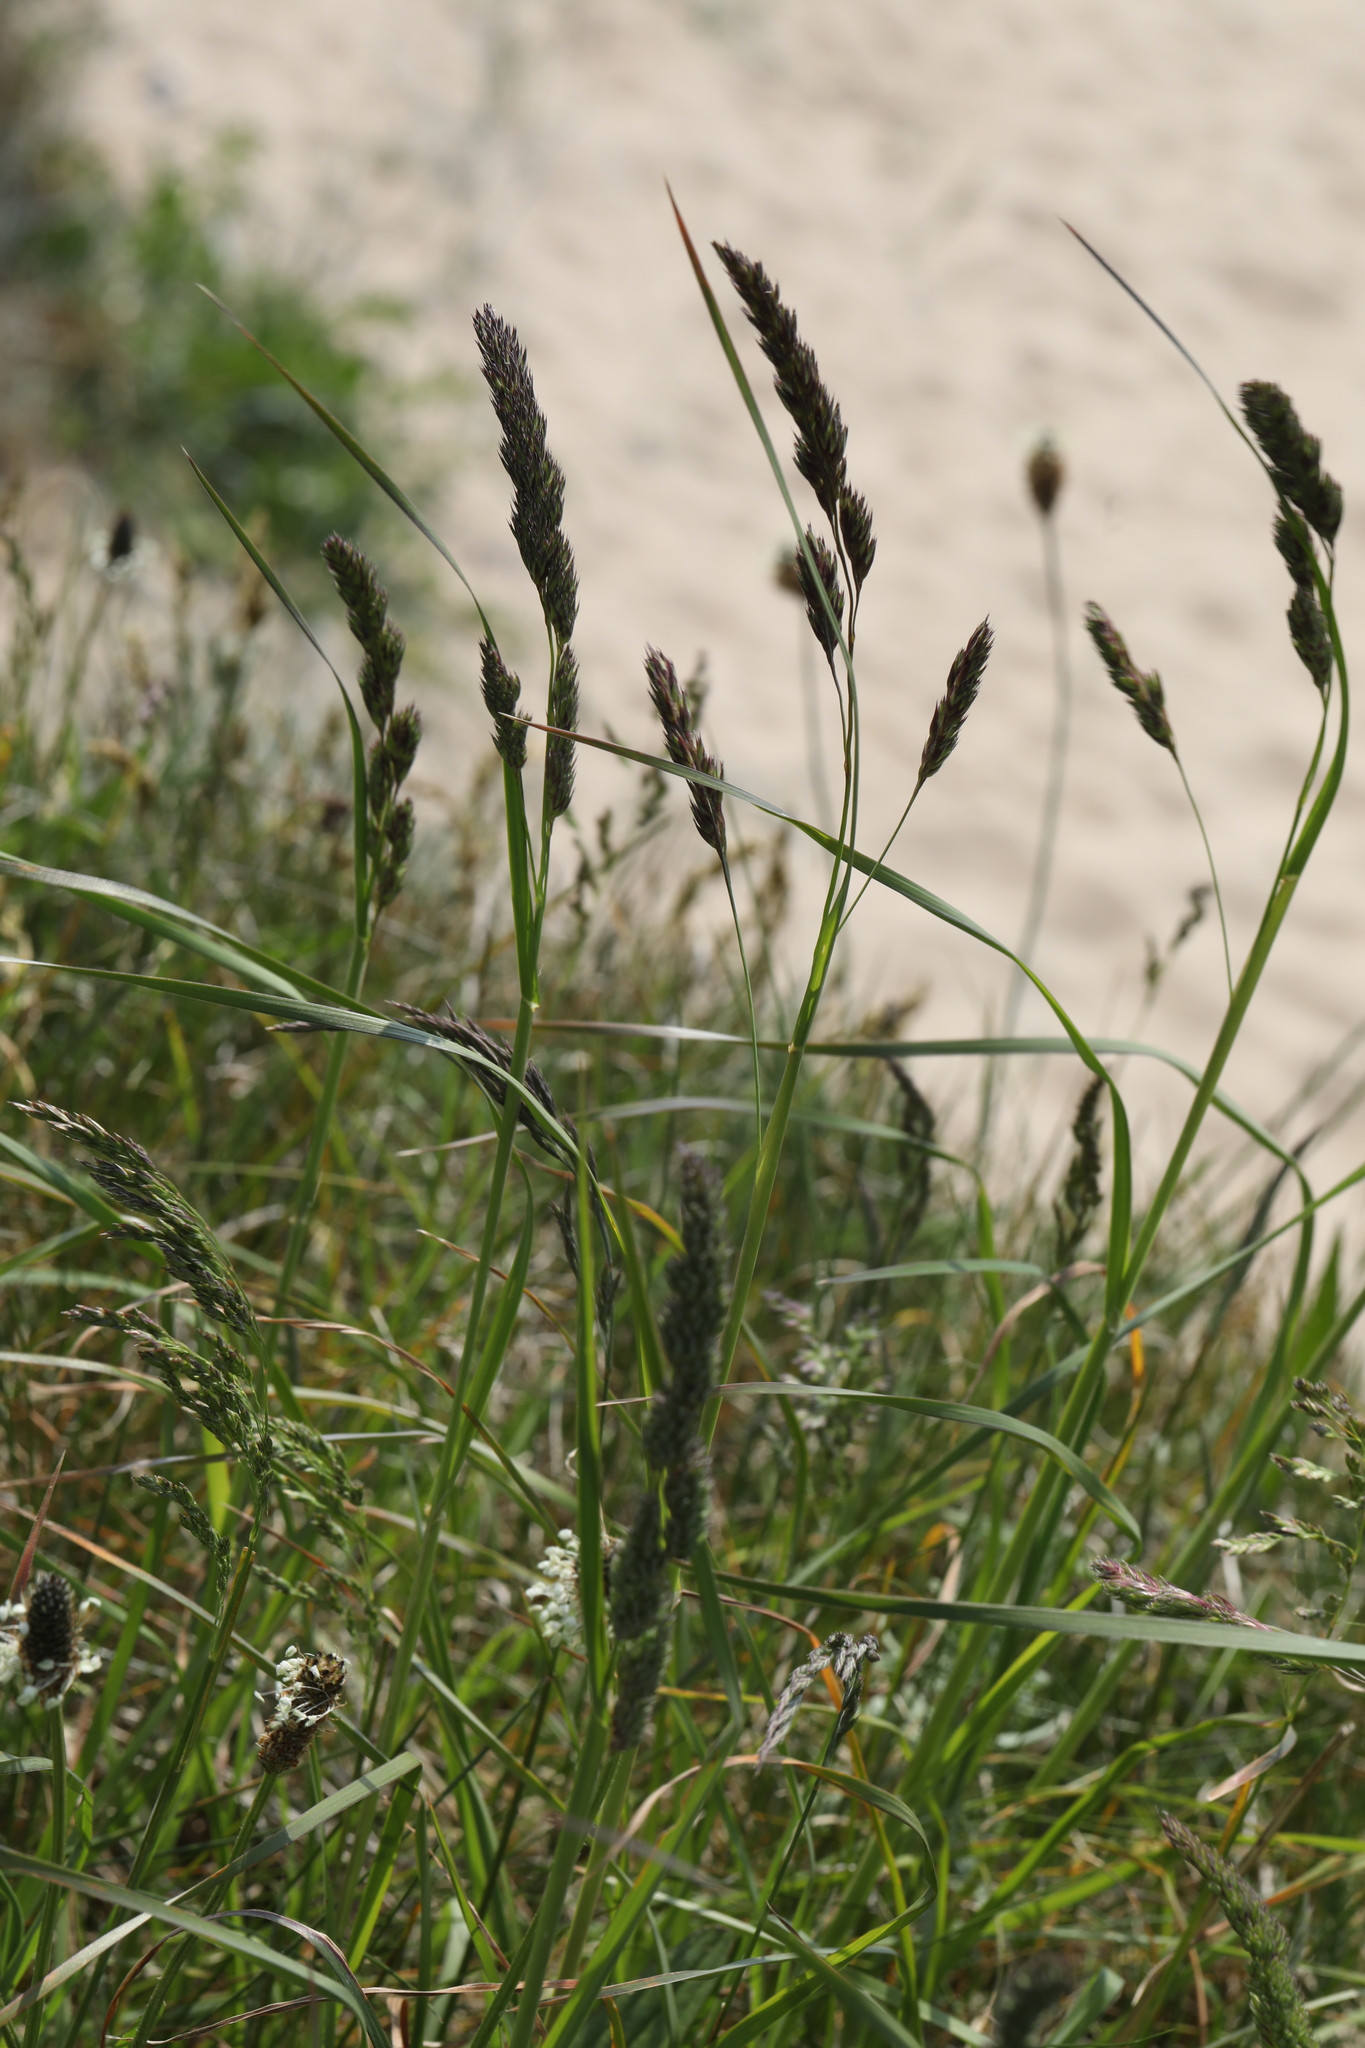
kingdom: Plantae
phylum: Tracheophyta
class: Liliopsida
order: Poales
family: Poaceae
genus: Dactylis
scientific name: Dactylis glomerata
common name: Orchardgrass
